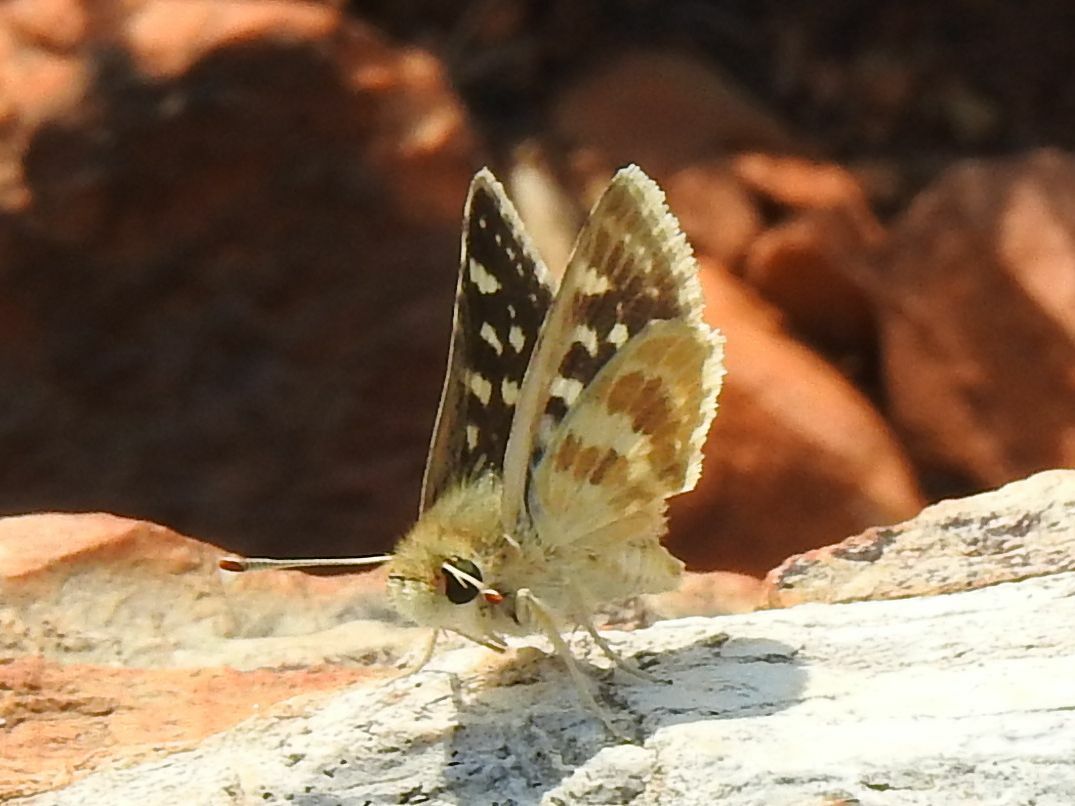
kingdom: Animalia
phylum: Arthropoda
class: Insecta
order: Lepidoptera
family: Hesperiidae
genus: Spialia
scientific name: Spialia diomus
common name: Common sandman
